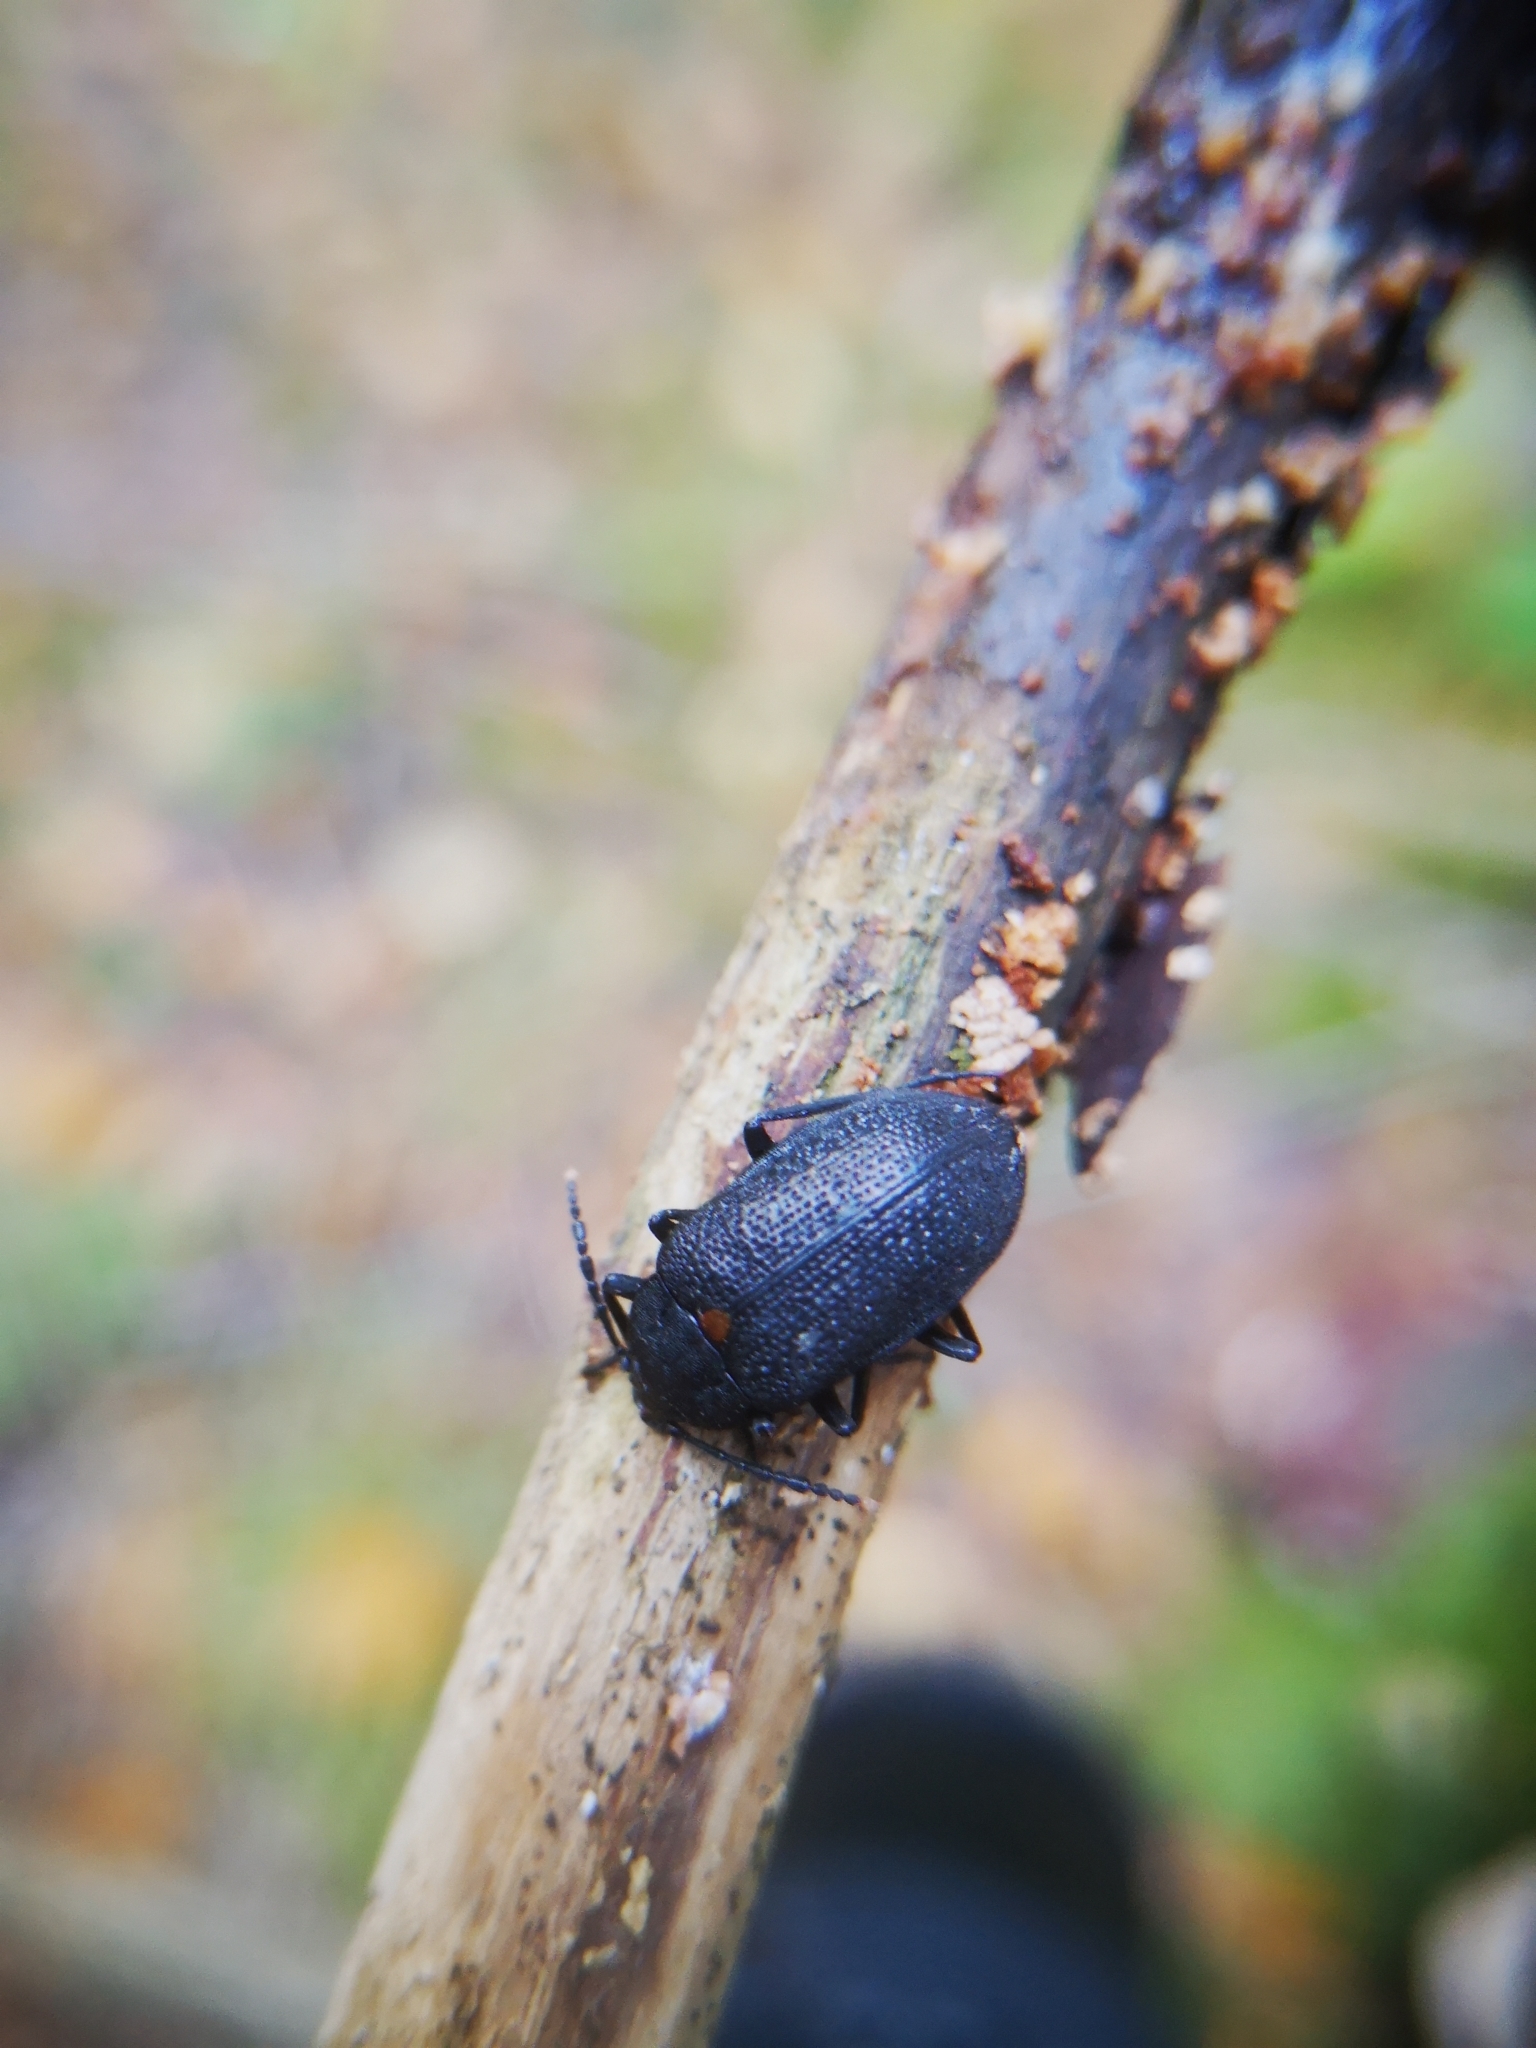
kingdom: Animalia
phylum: Arthropoda
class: Insecta
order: Coleoptera
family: Tetratomidae
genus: Penthe
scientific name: Penthe obliquata
